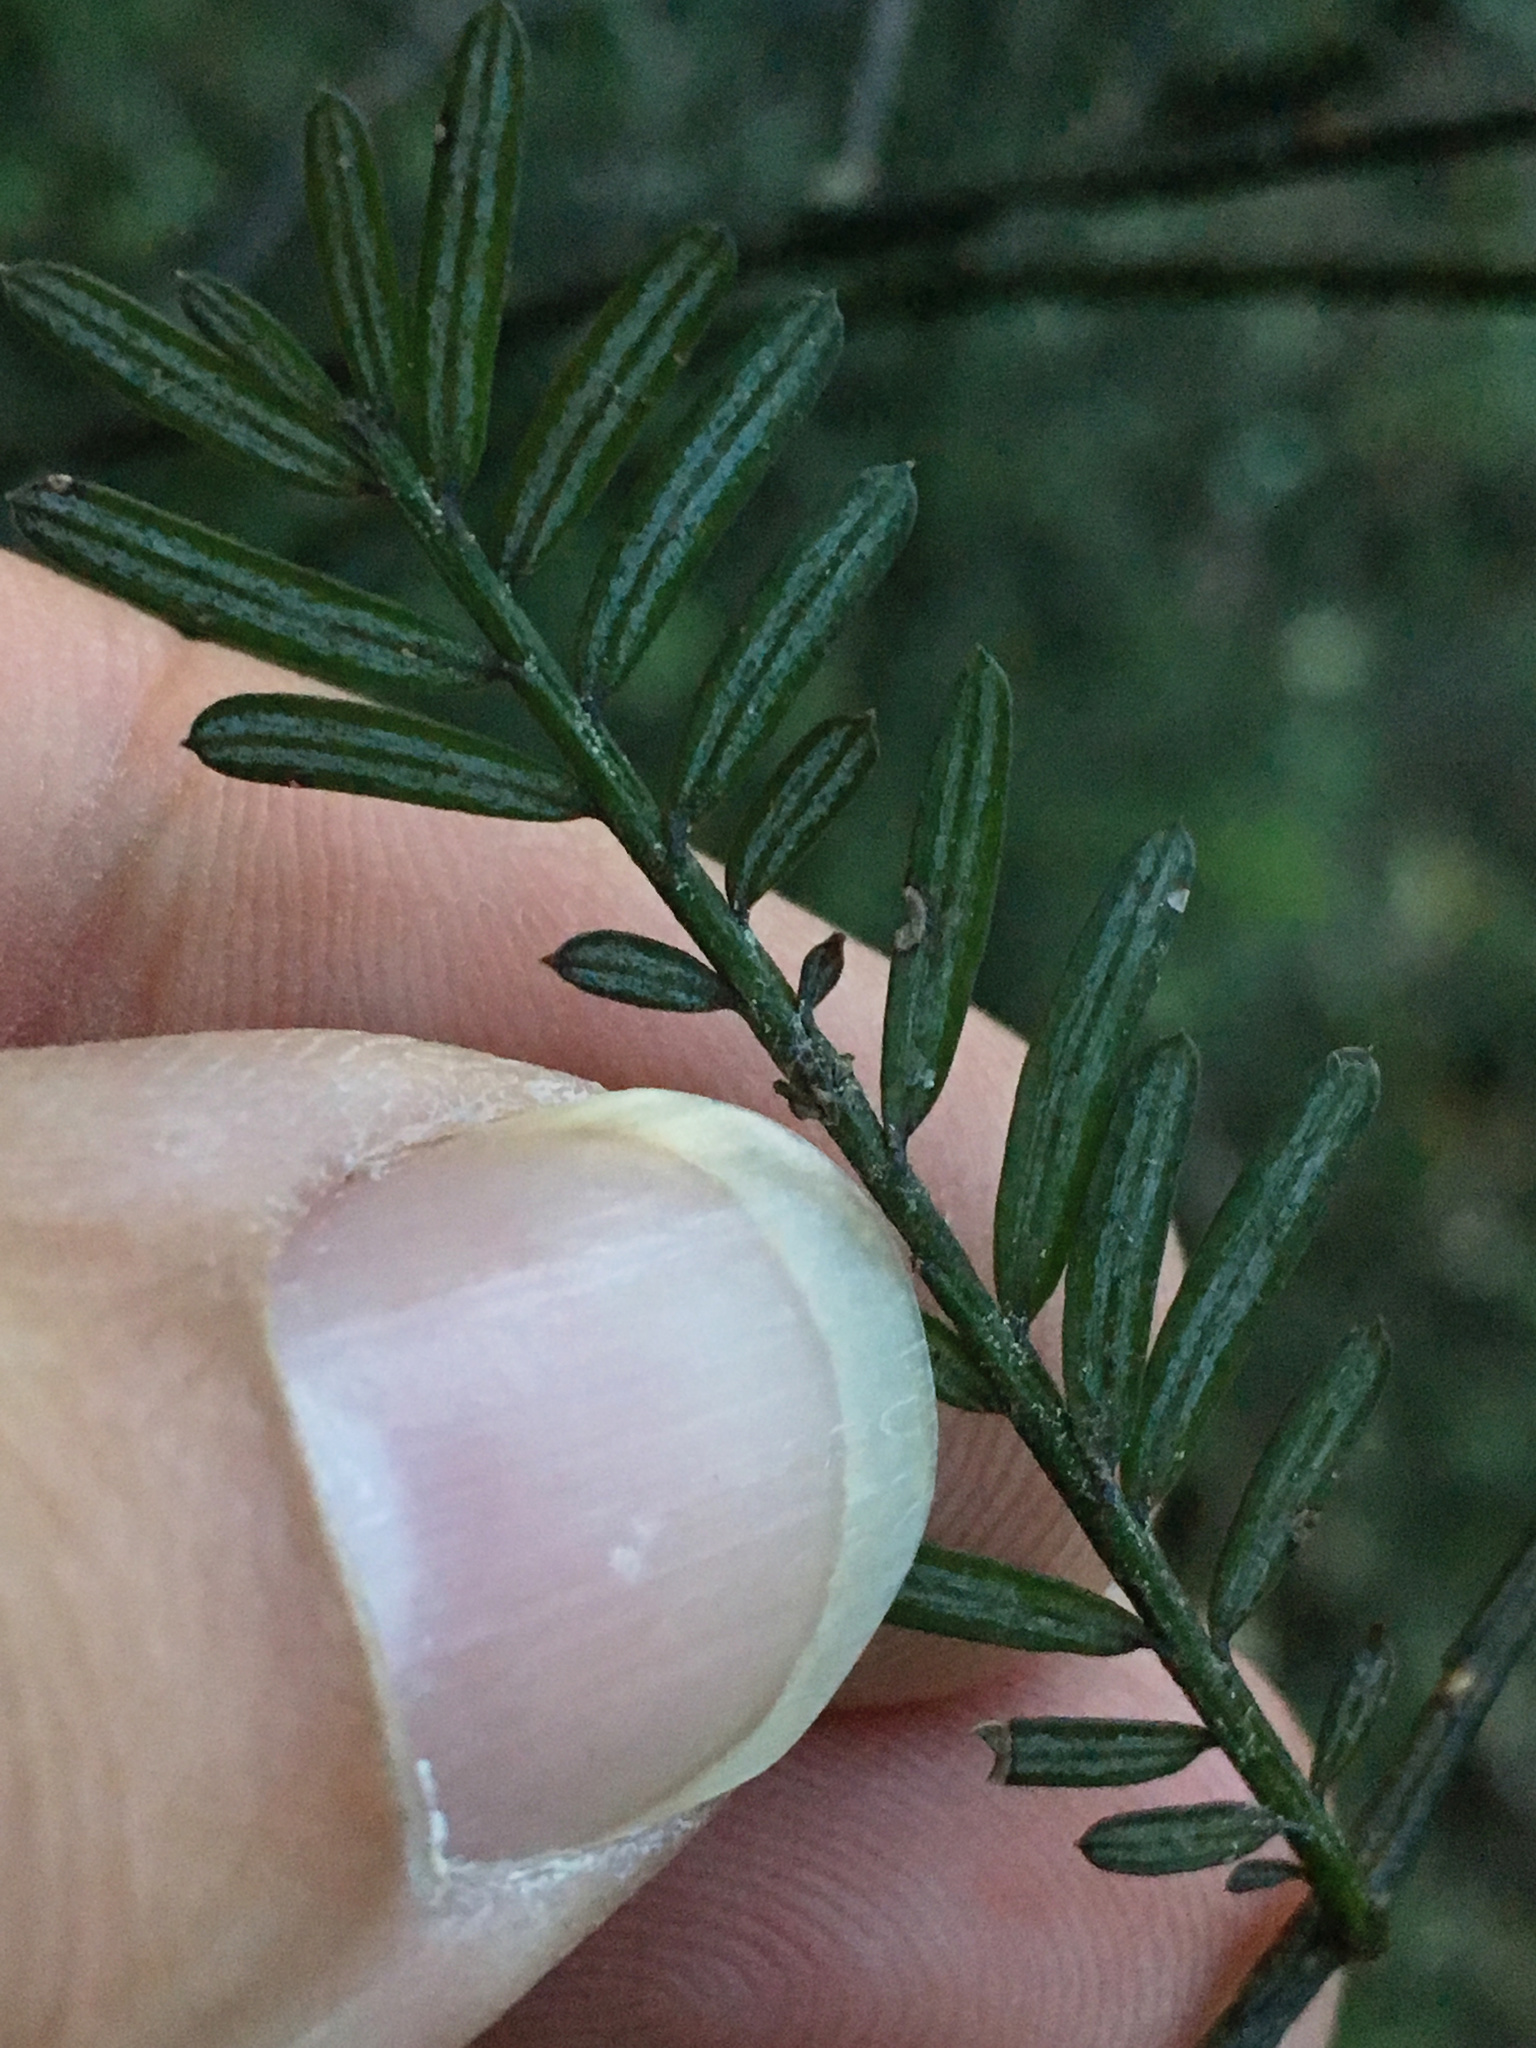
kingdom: Plantae
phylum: Tracheophyta
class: Pinopsida
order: Pinales
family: Podocarpaceae
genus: Prumnopitys
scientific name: Prumnopitys taxifolia
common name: Matai
